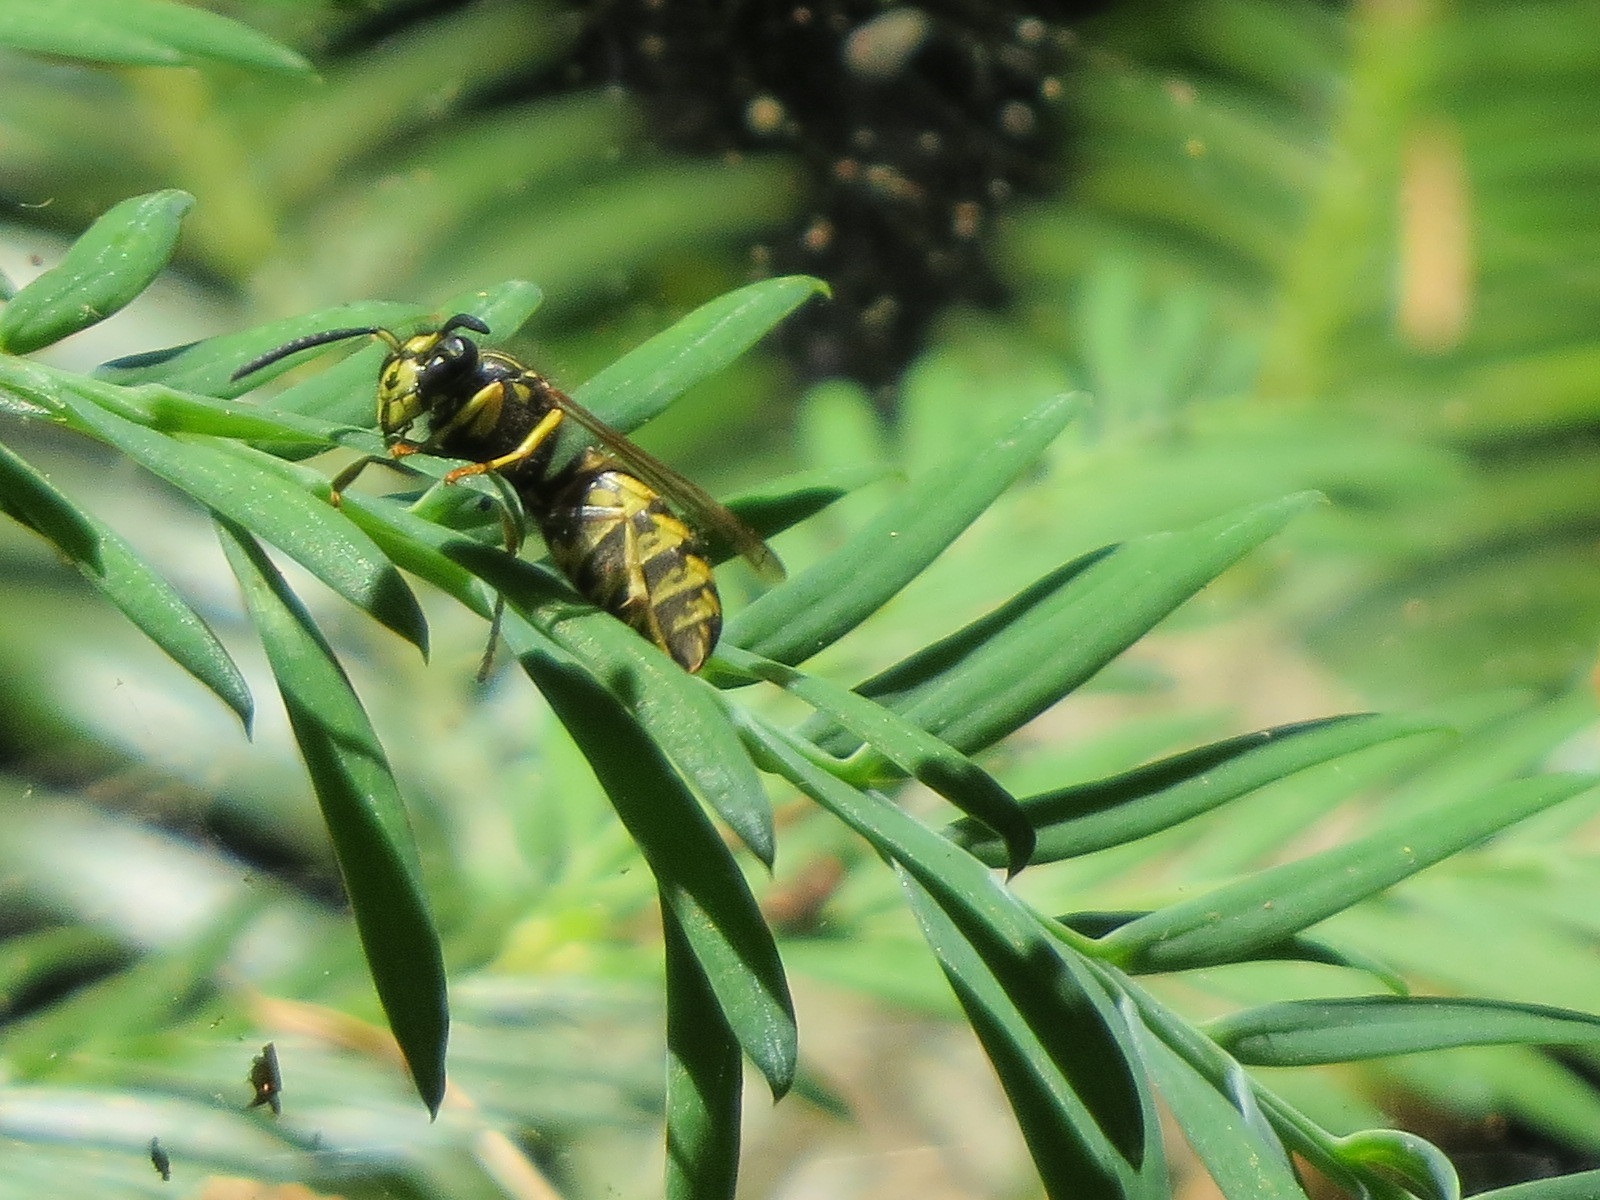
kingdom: Animalia
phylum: Arthropoda
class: Insecta
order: Hymenoptera
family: Vespidae
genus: Vespula
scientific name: Vespula acadica
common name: Forest yellowjacket
